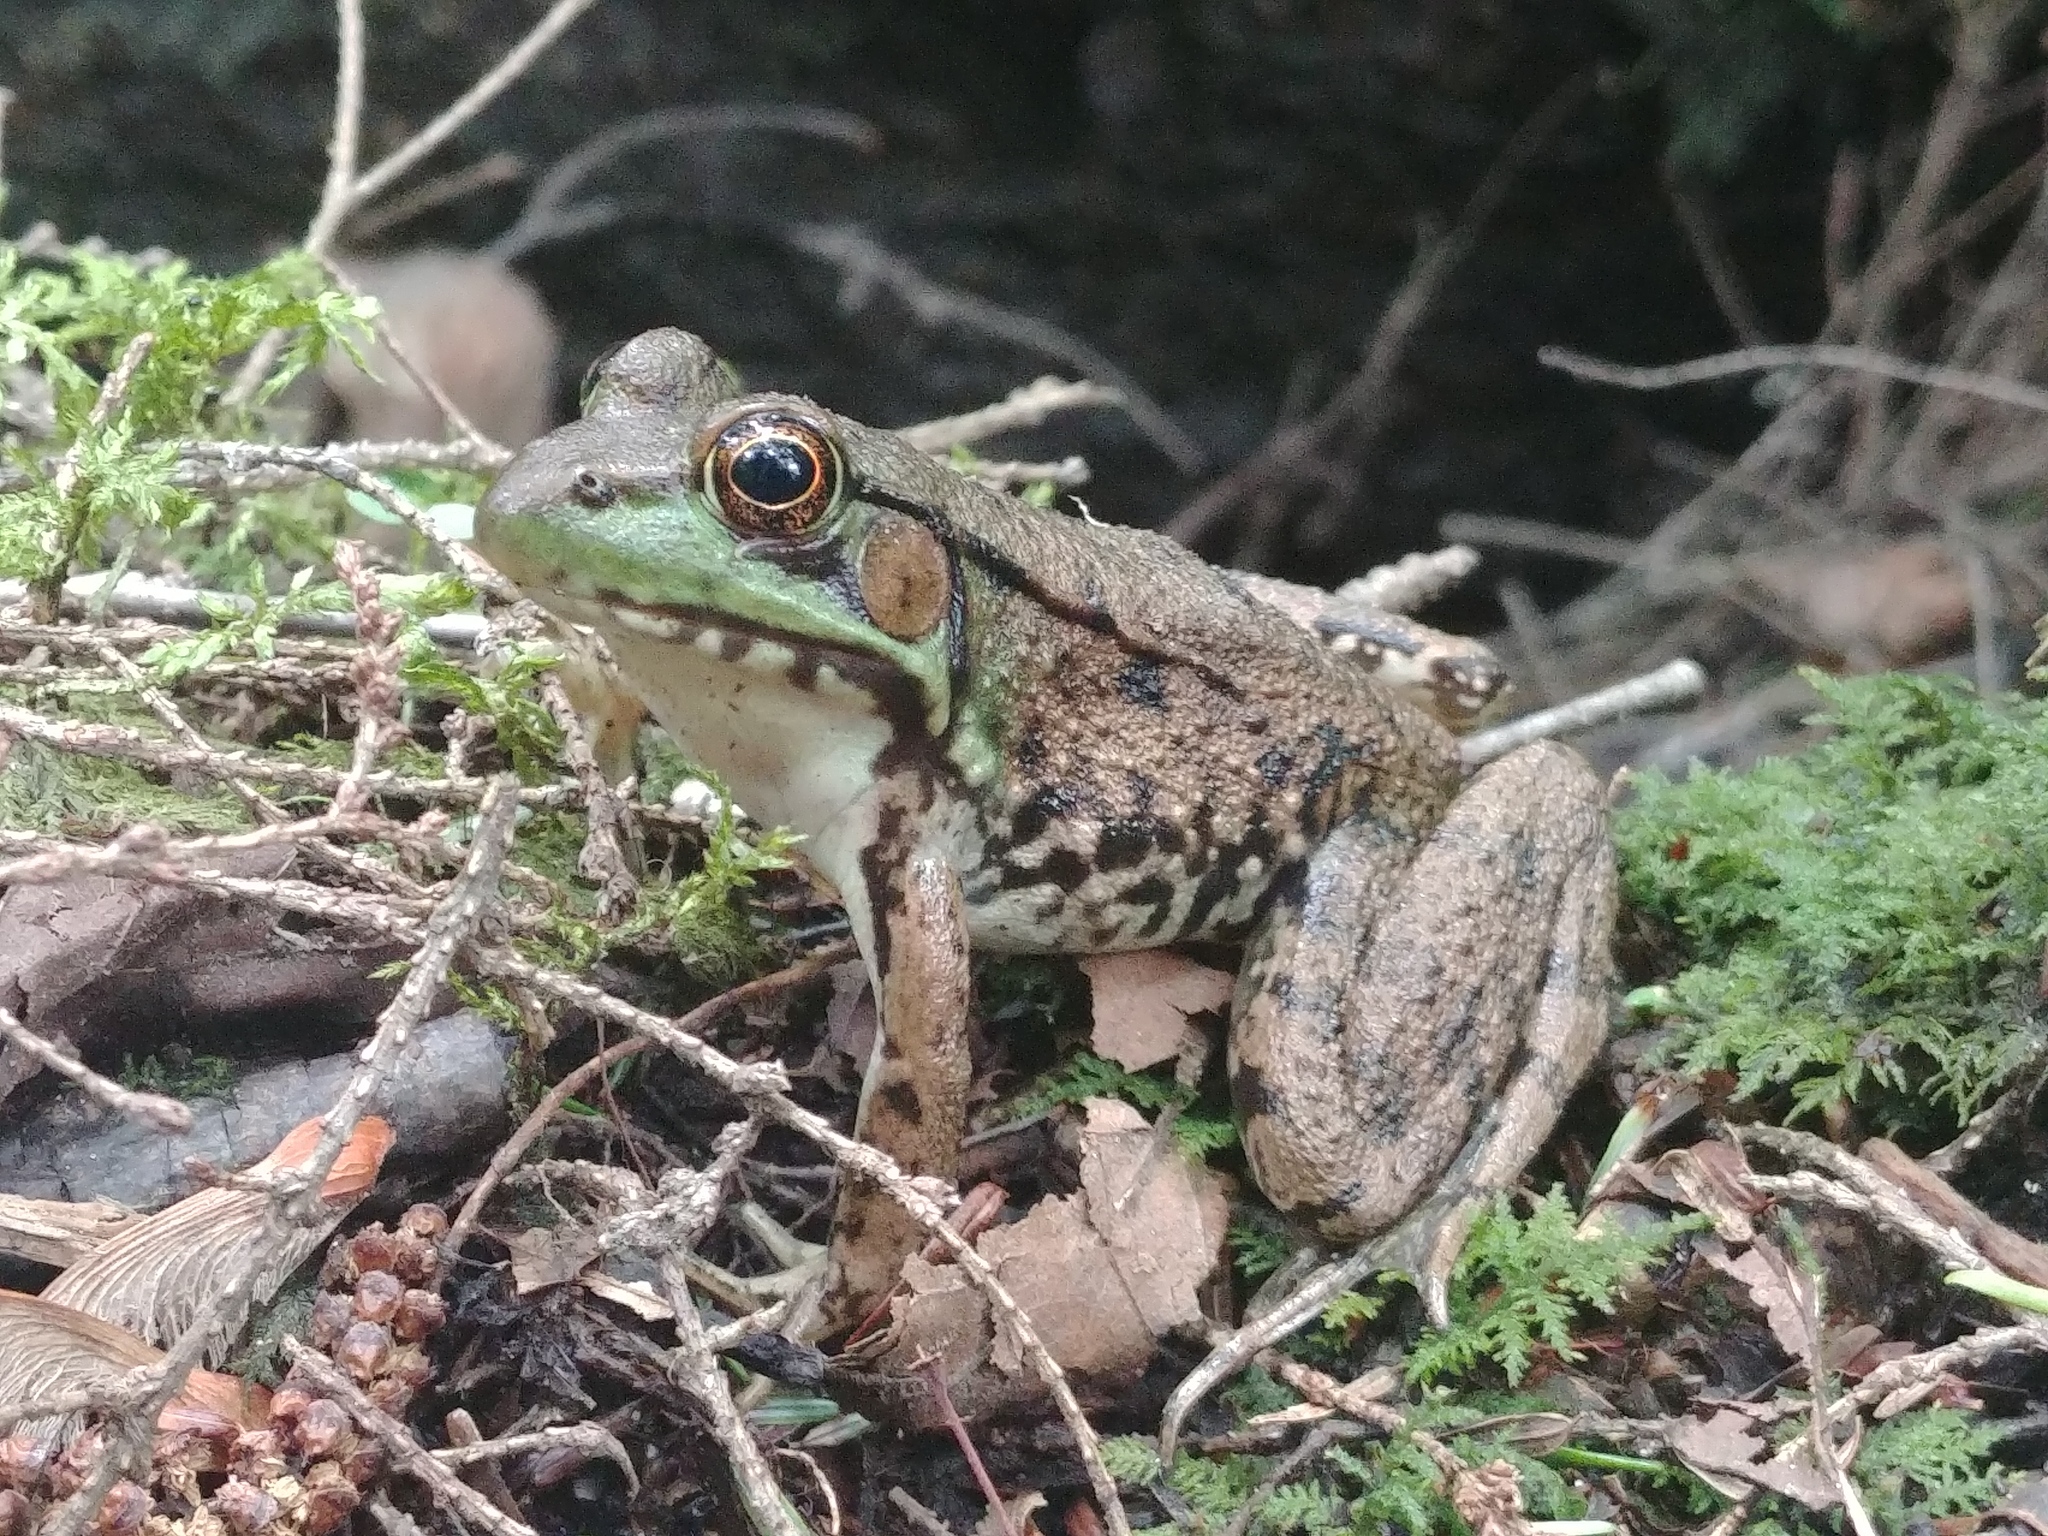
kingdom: Animalia
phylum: Chordata
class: Amphibia
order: Anura
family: Ranidae
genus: Lithobates
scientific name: Lithobates clamitans
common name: Green frog
